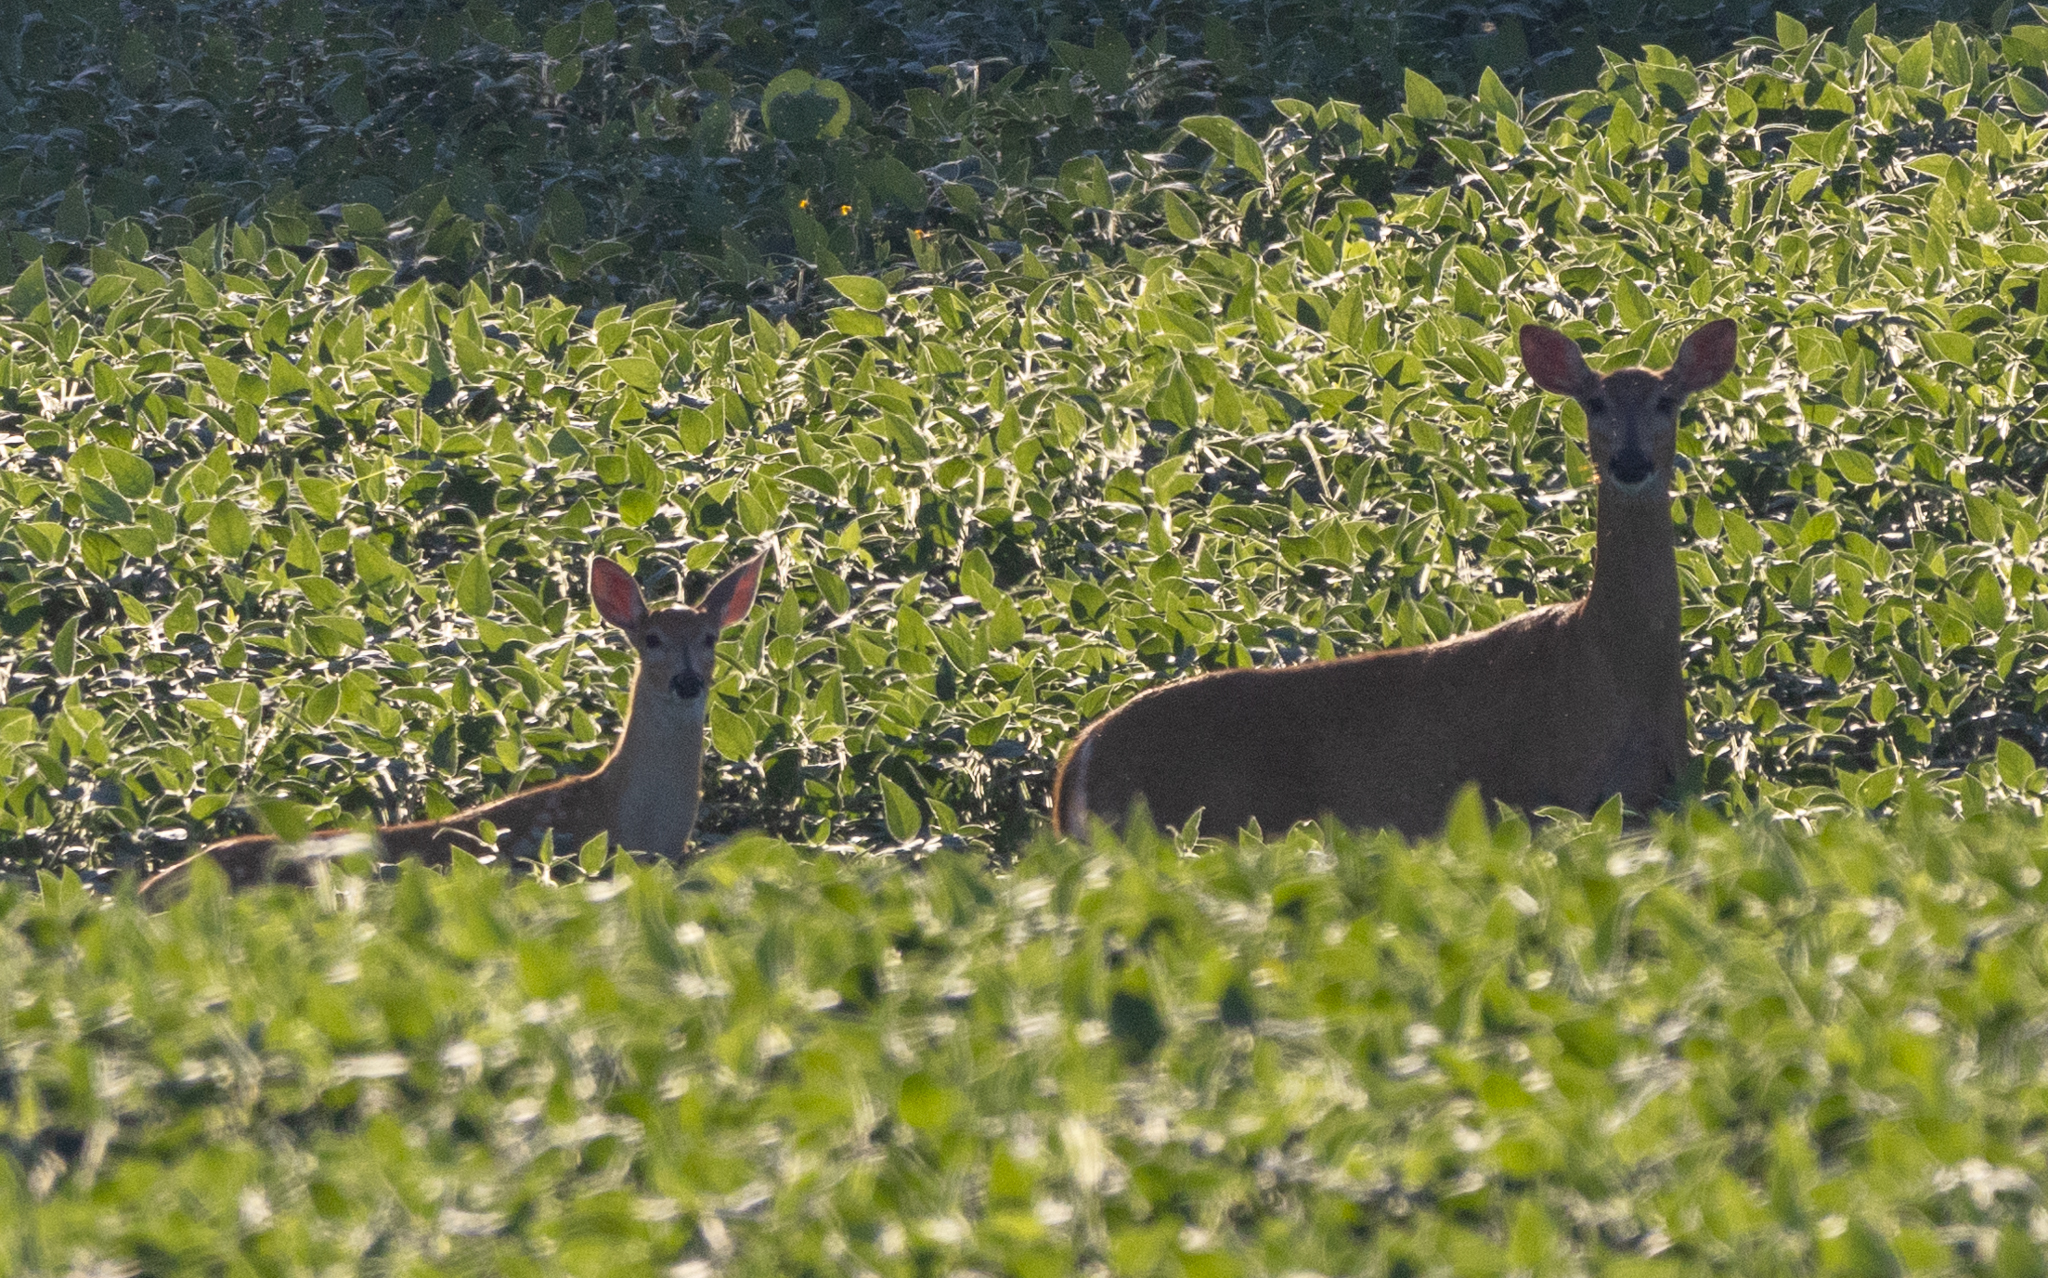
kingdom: Animalia
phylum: Chordata
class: Mammalia
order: Artiodactyla
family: Cervidae
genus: Odocoileus
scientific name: Odocoileus virginianus
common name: White-tailed deer
